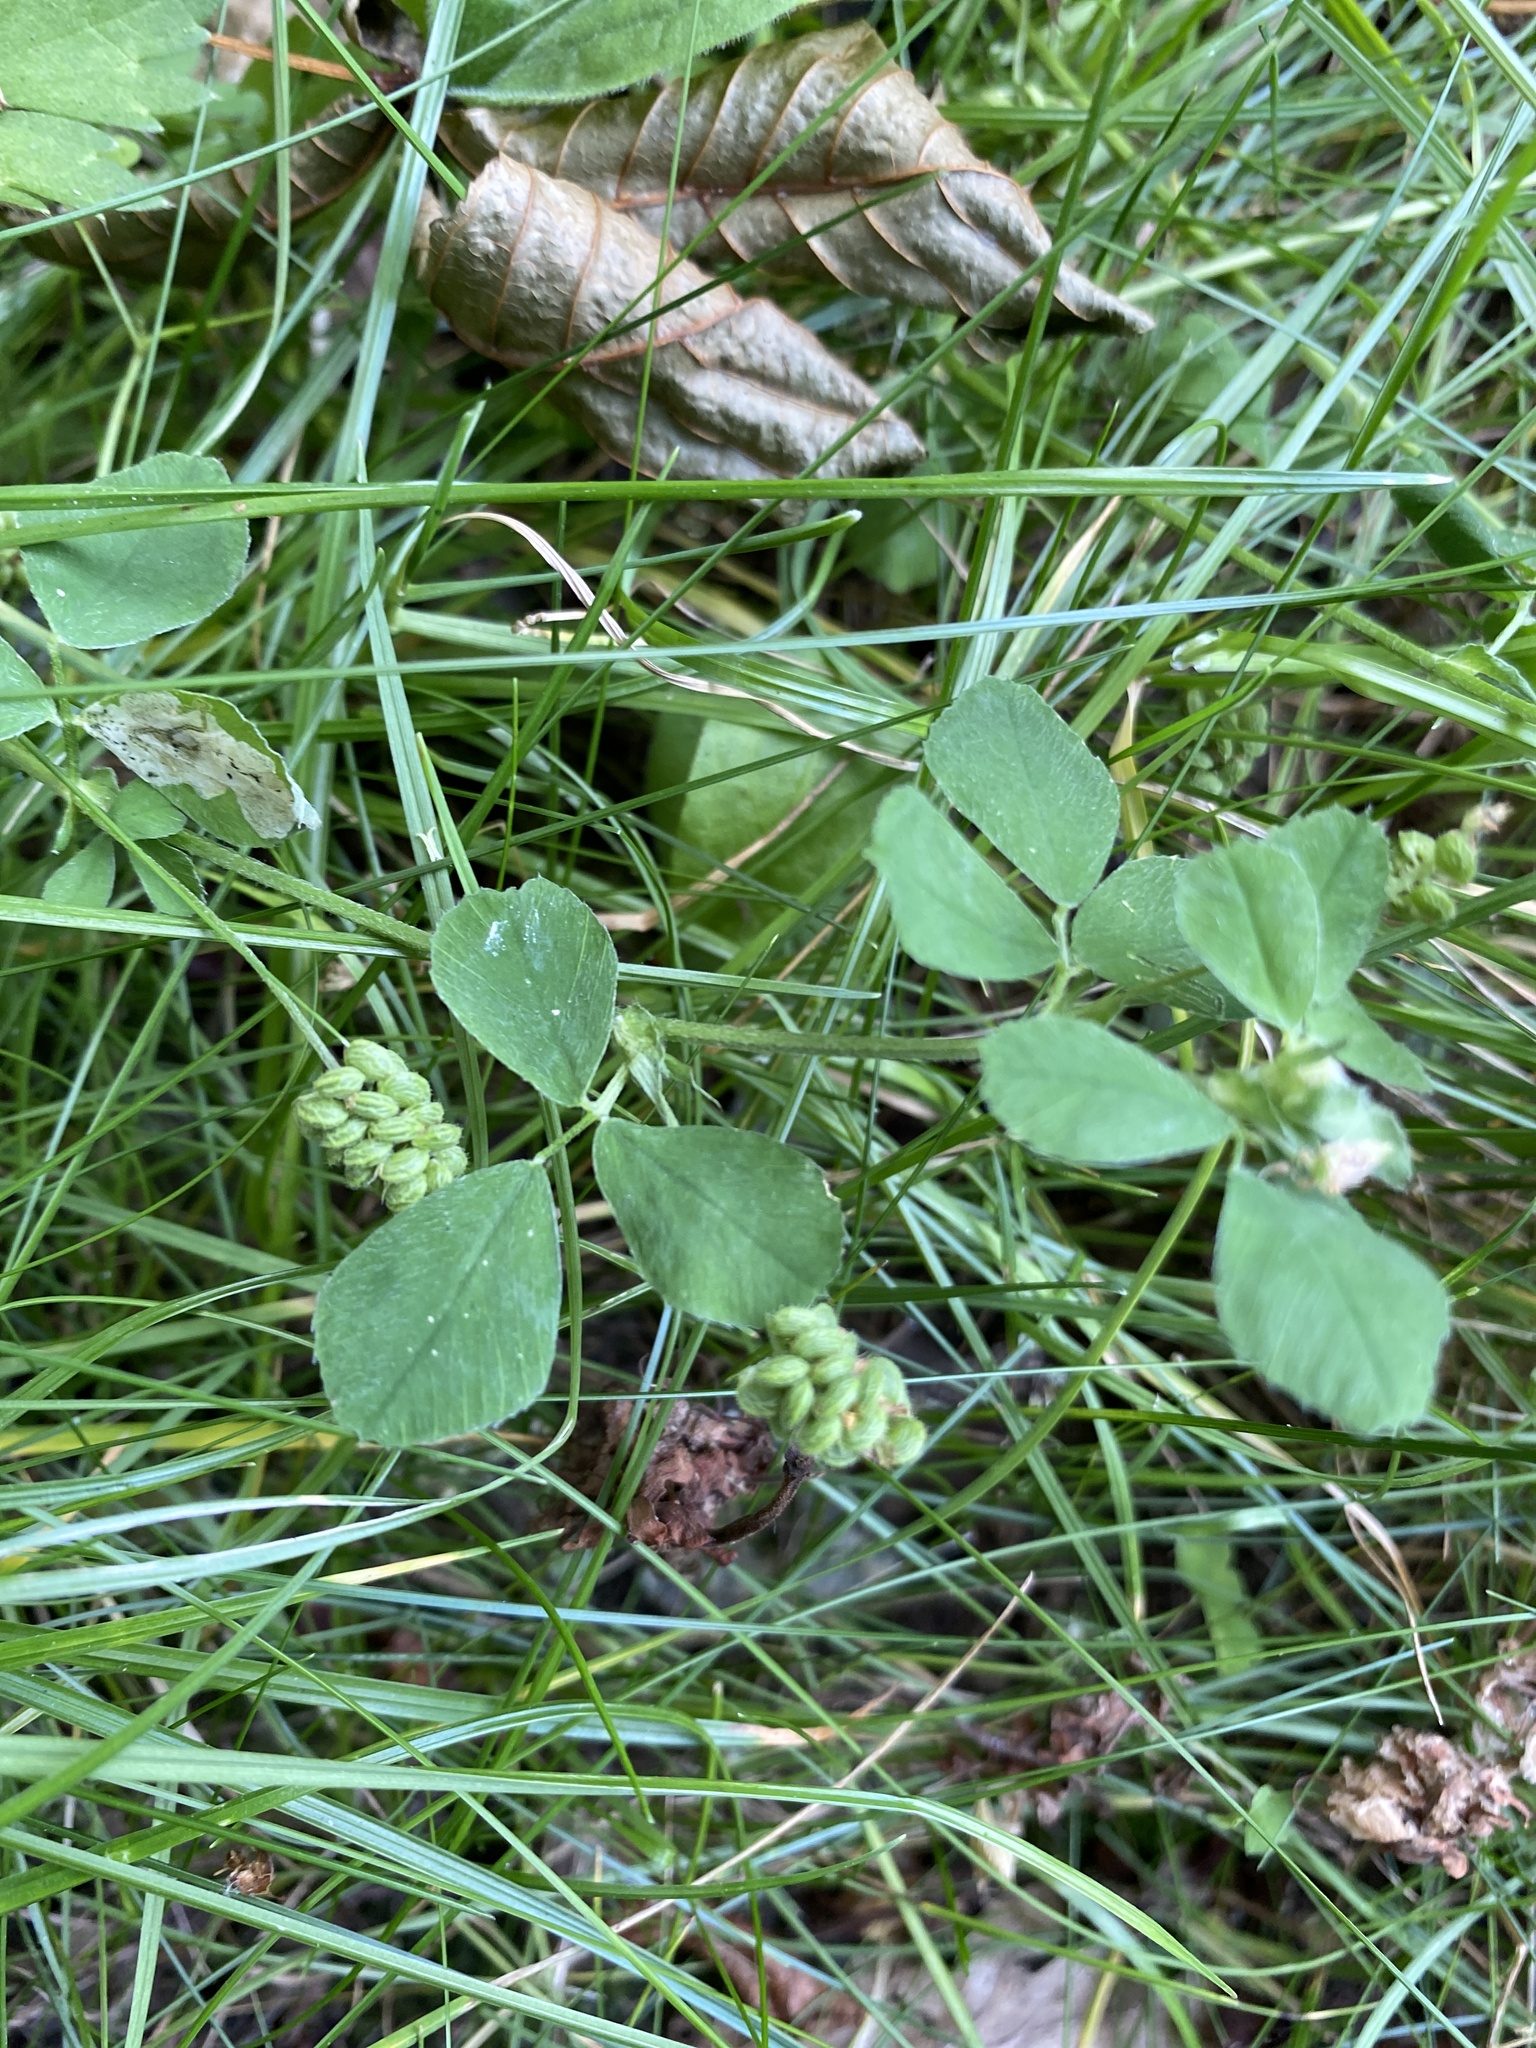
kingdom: Plantae
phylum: Tracheophyta
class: Magnoliopsida
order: Fabales
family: Fabaceae
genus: Medicago
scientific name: Medicago lupulina
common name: Black medick
